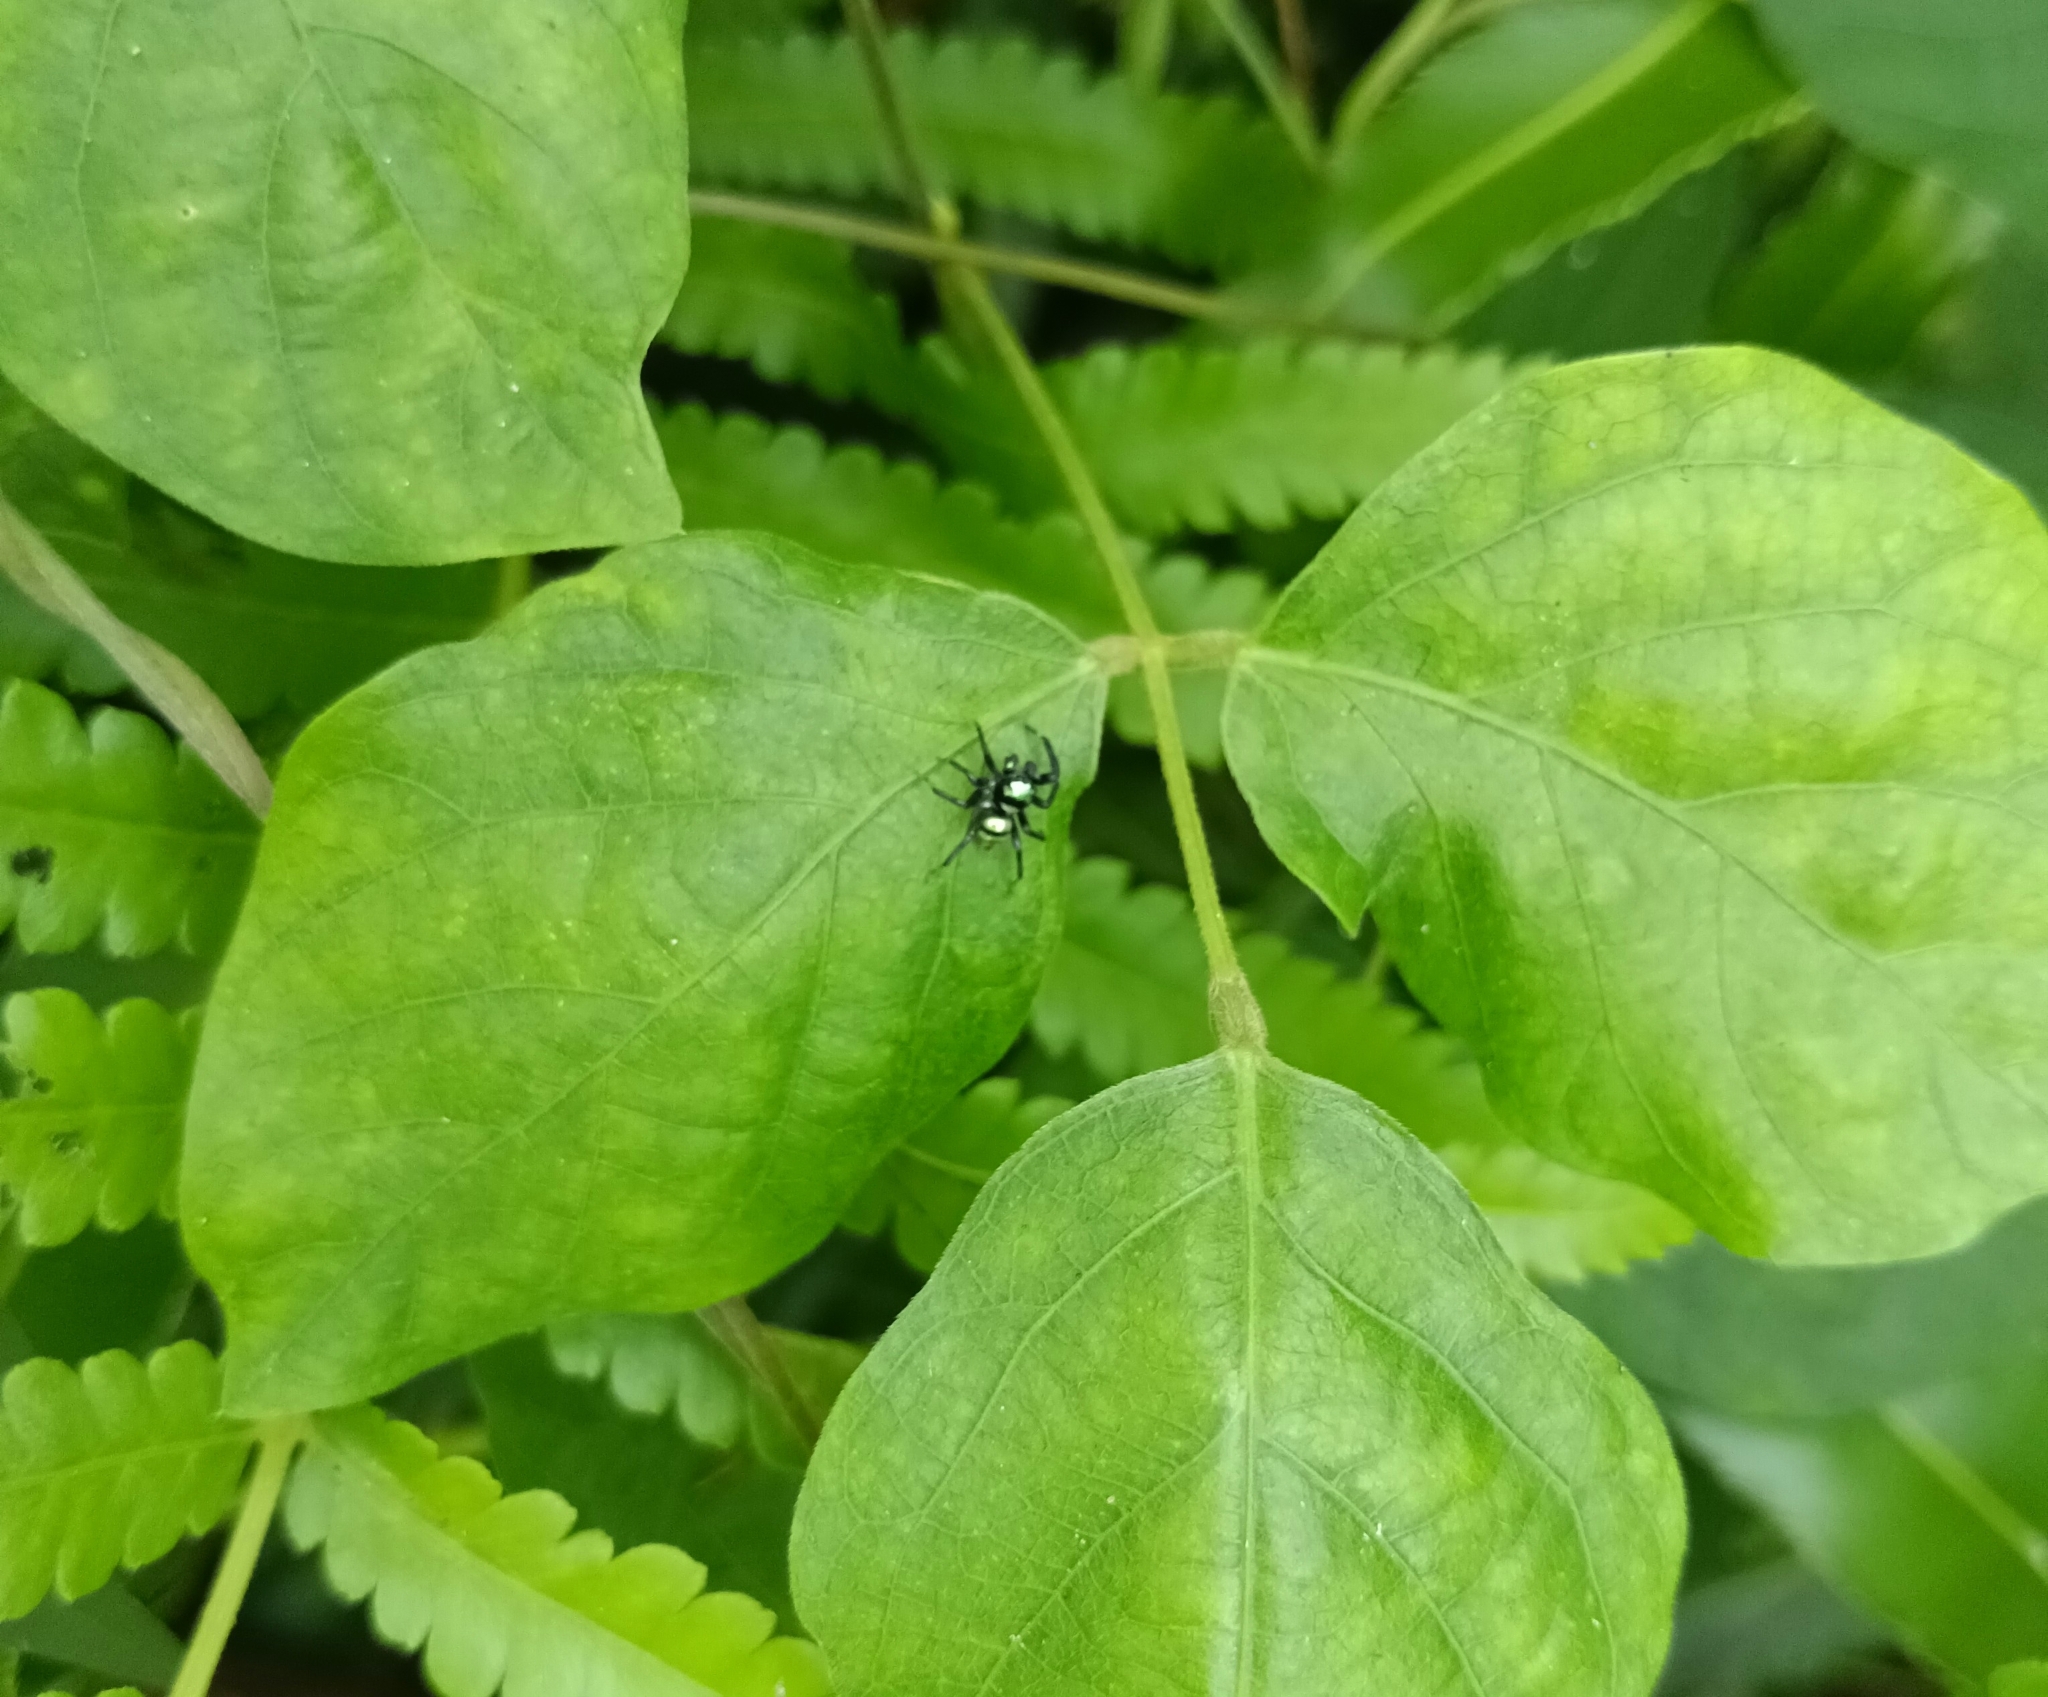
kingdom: Animalia
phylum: Arthropoda
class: Arachnida
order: Araneae
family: Salticidae
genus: Phintella
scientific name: Phintella vittata
